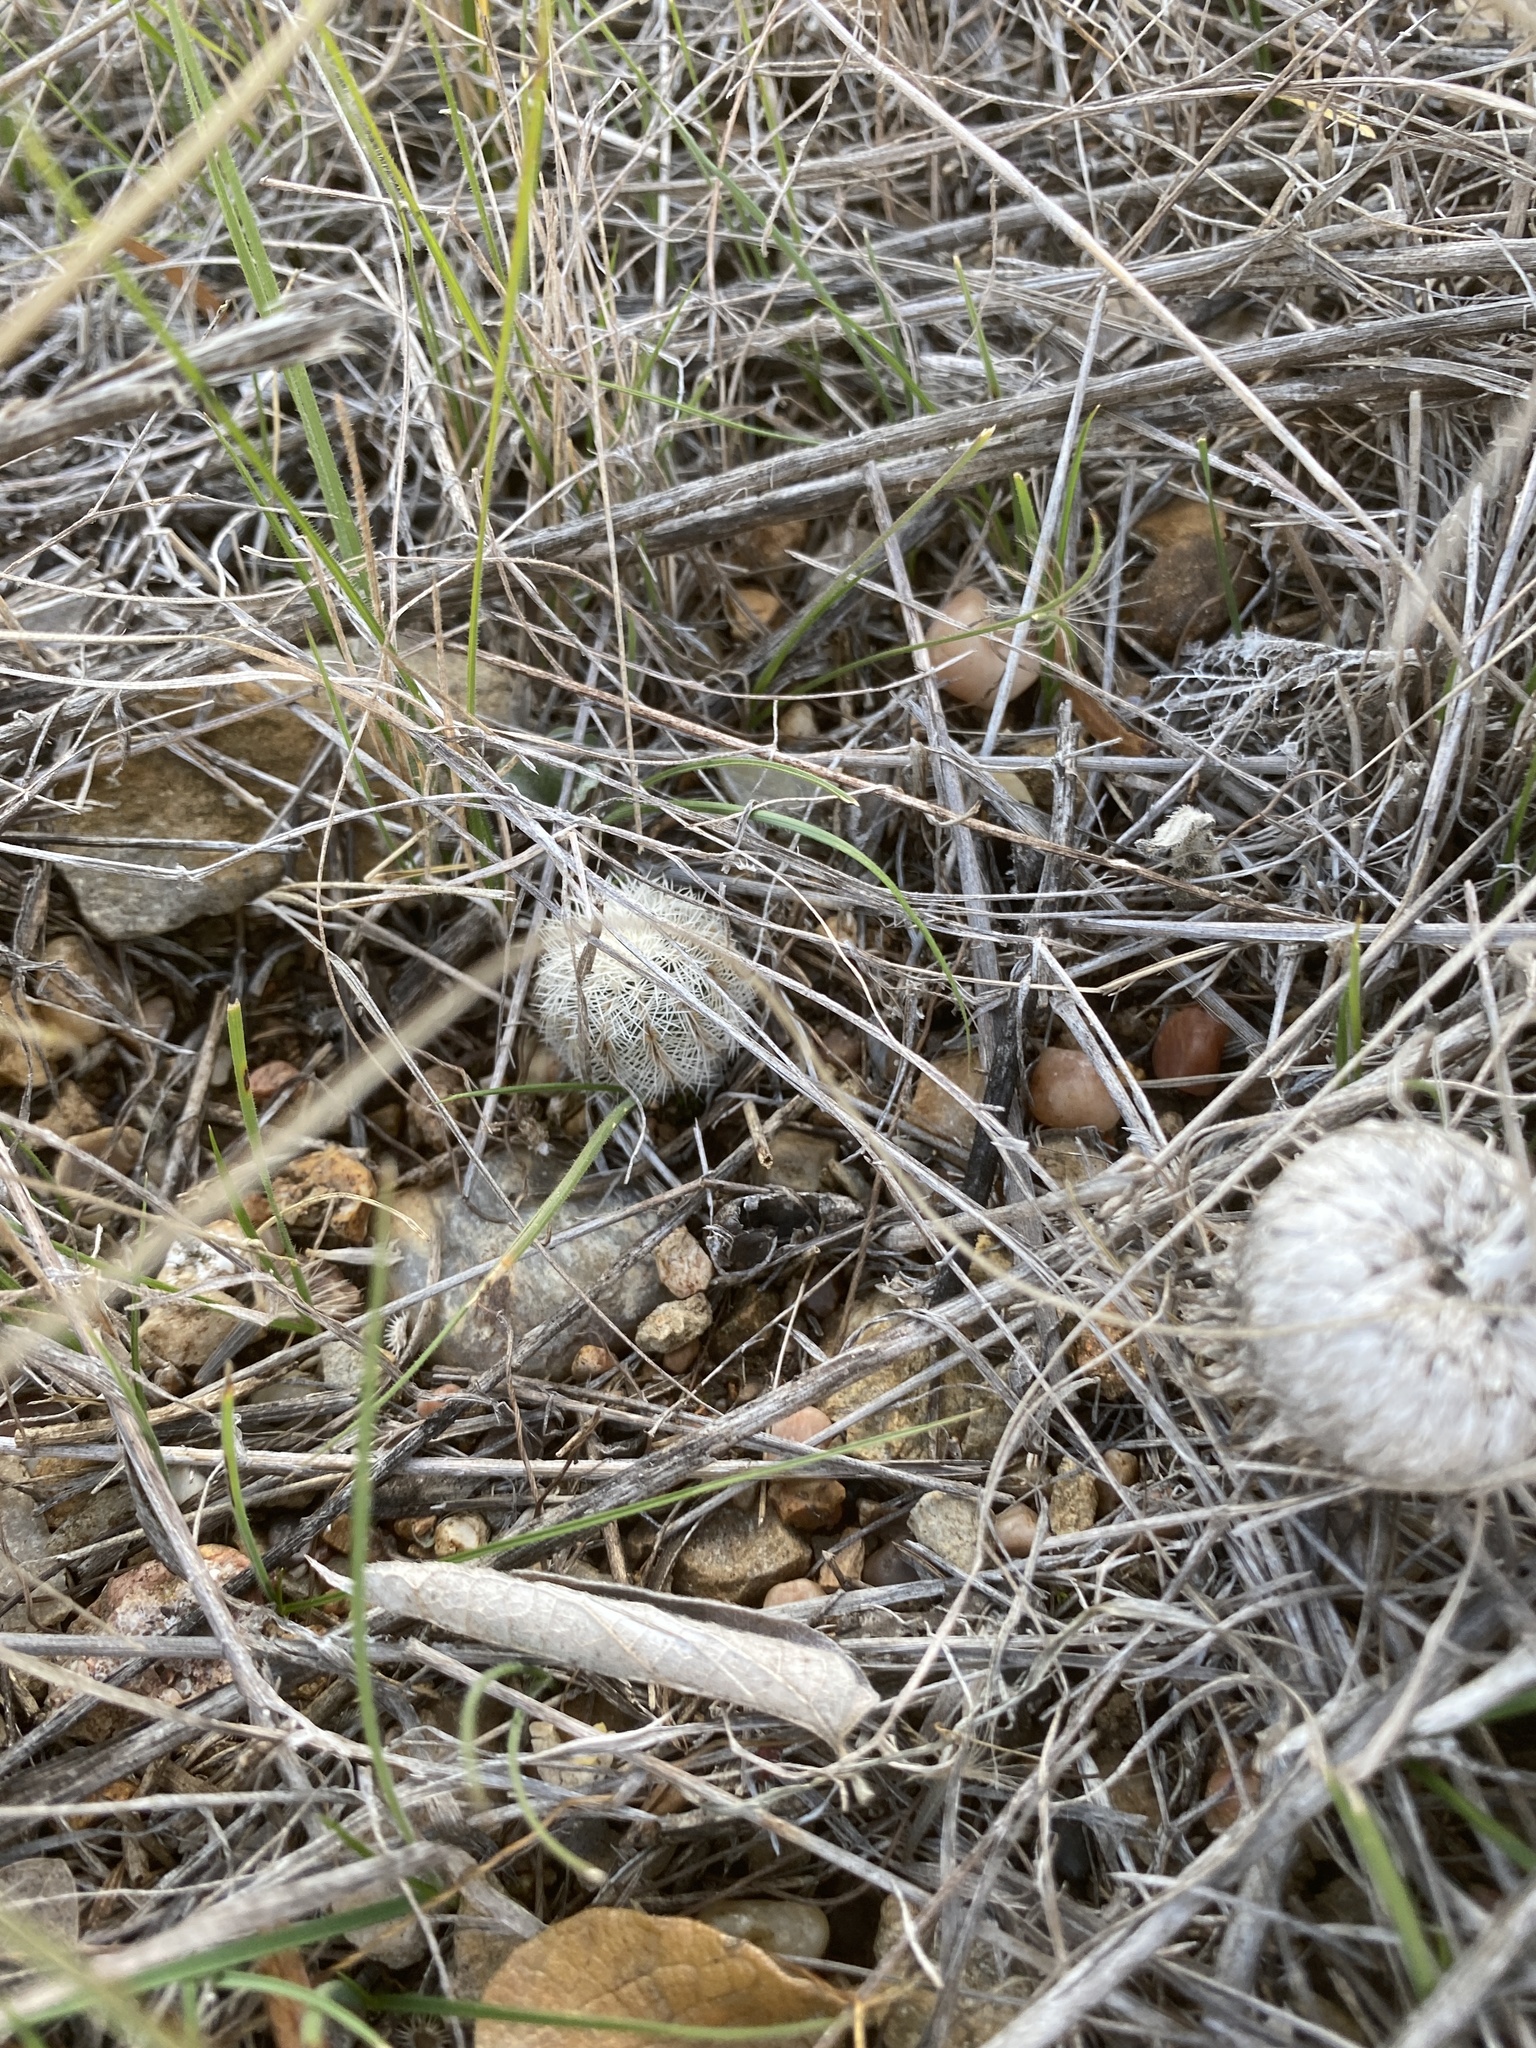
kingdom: Plantae
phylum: Tracheophyta
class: Magnoliopsida
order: Caryophyllales
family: Cactaceae
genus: Echinocereus
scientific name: Echinocereus reichenbachii
